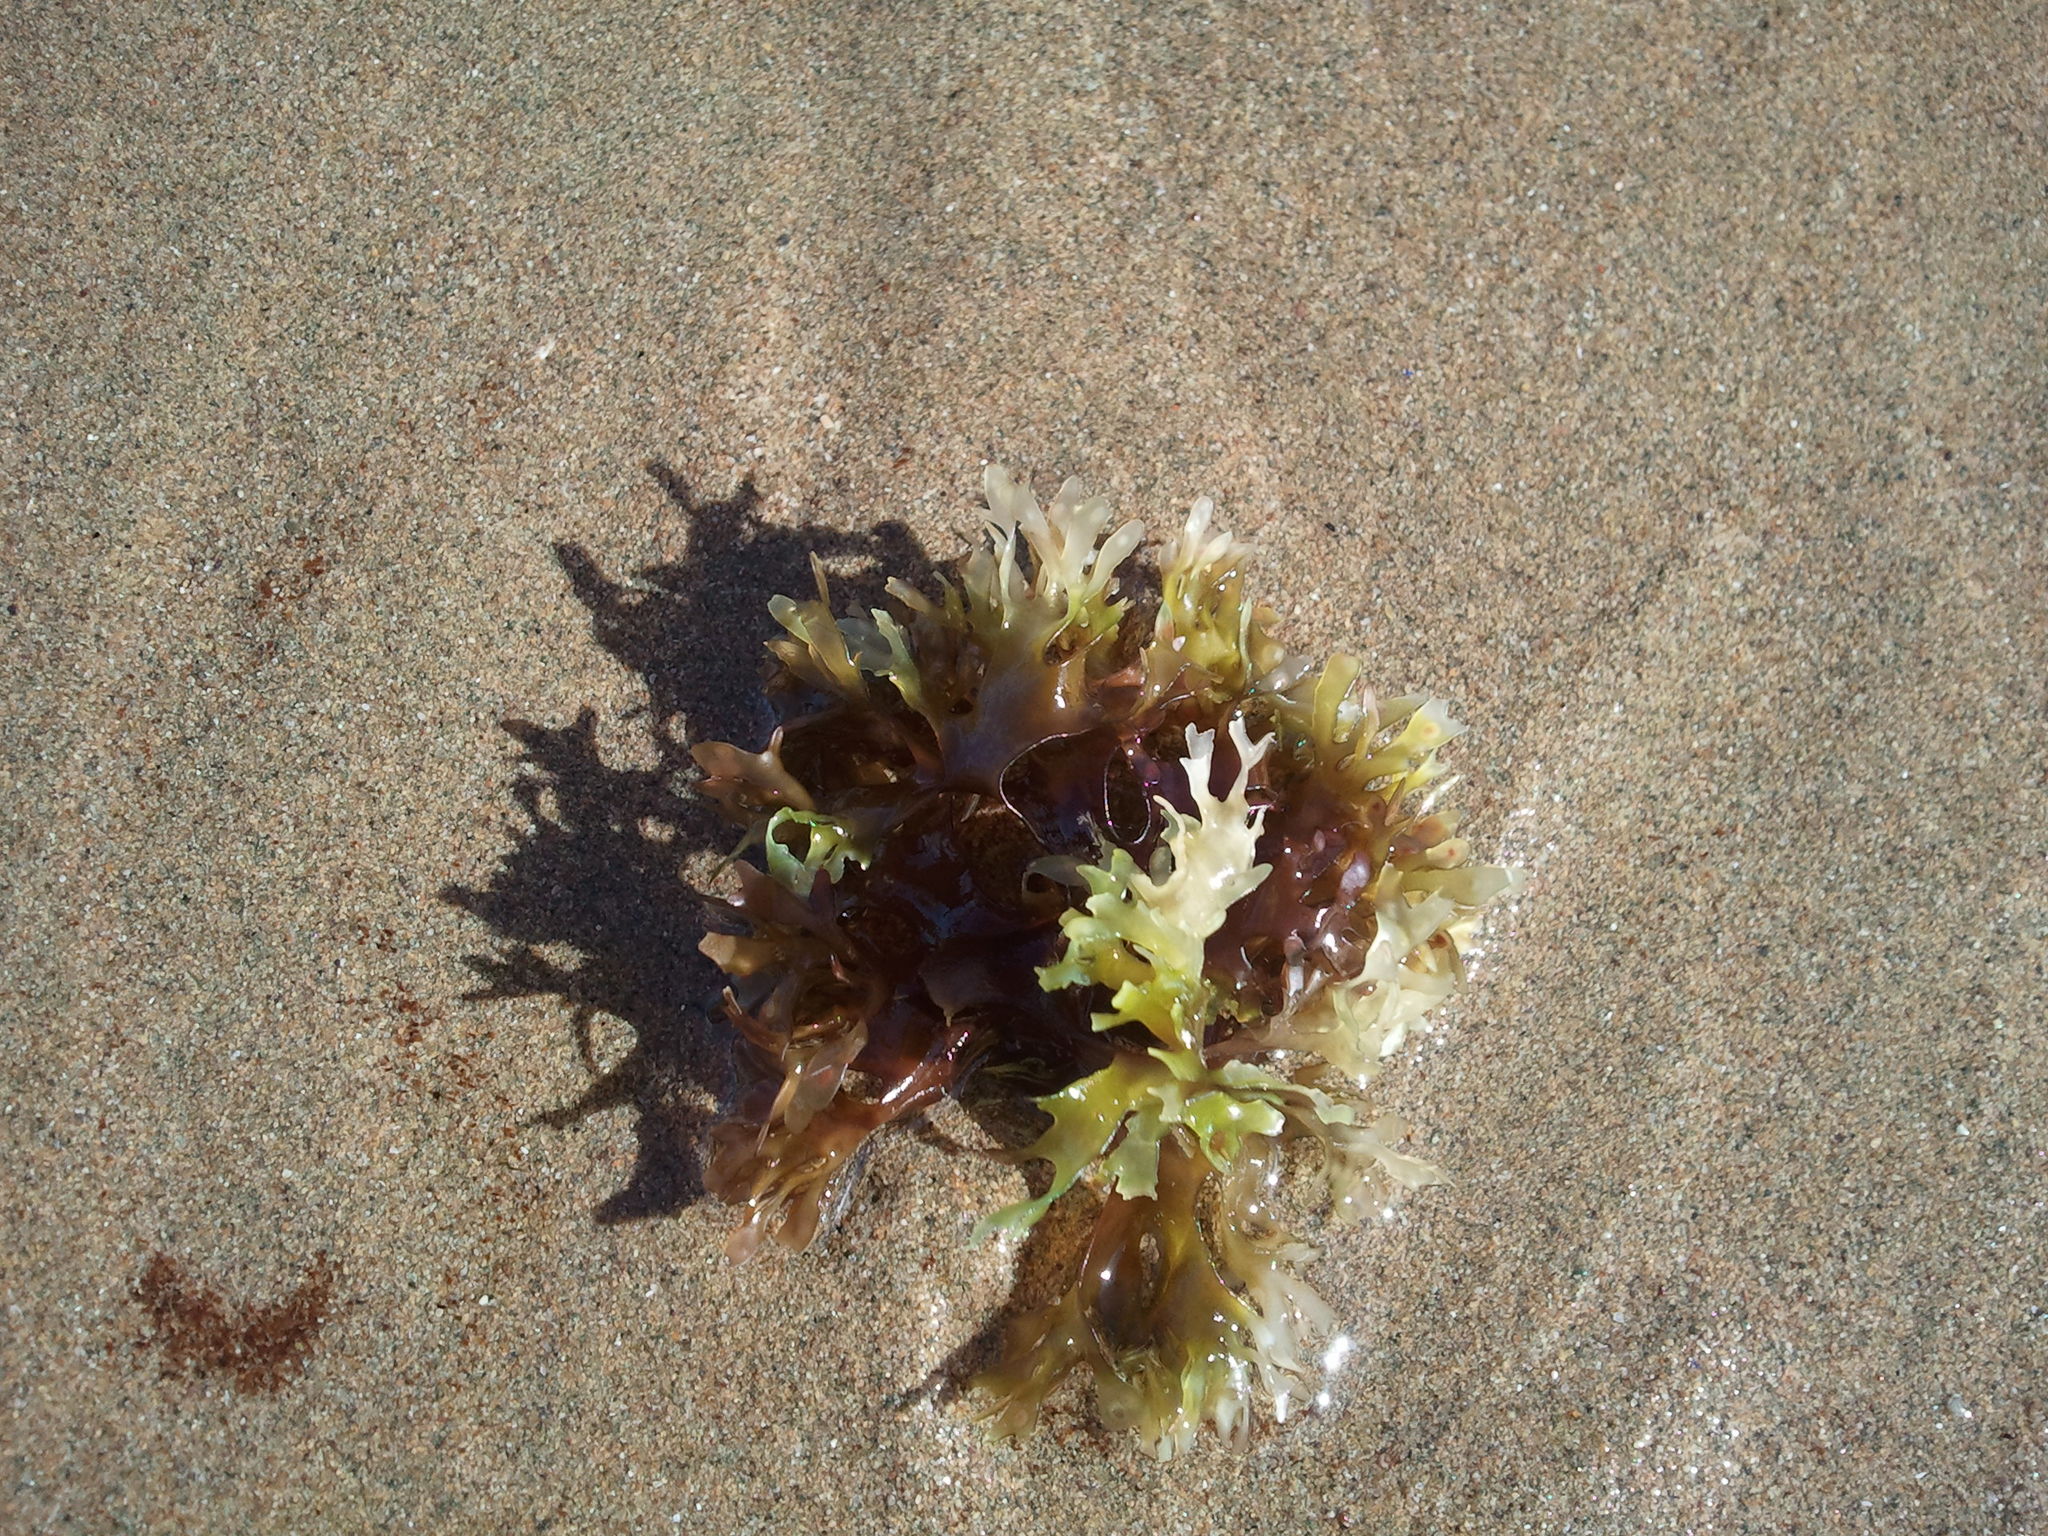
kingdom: Plantae
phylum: Rhodophyta
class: Florideophyceae
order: Gigartinales
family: Gigartinaceae
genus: Chondrus
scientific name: Chondrus crispus
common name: Carrageen
